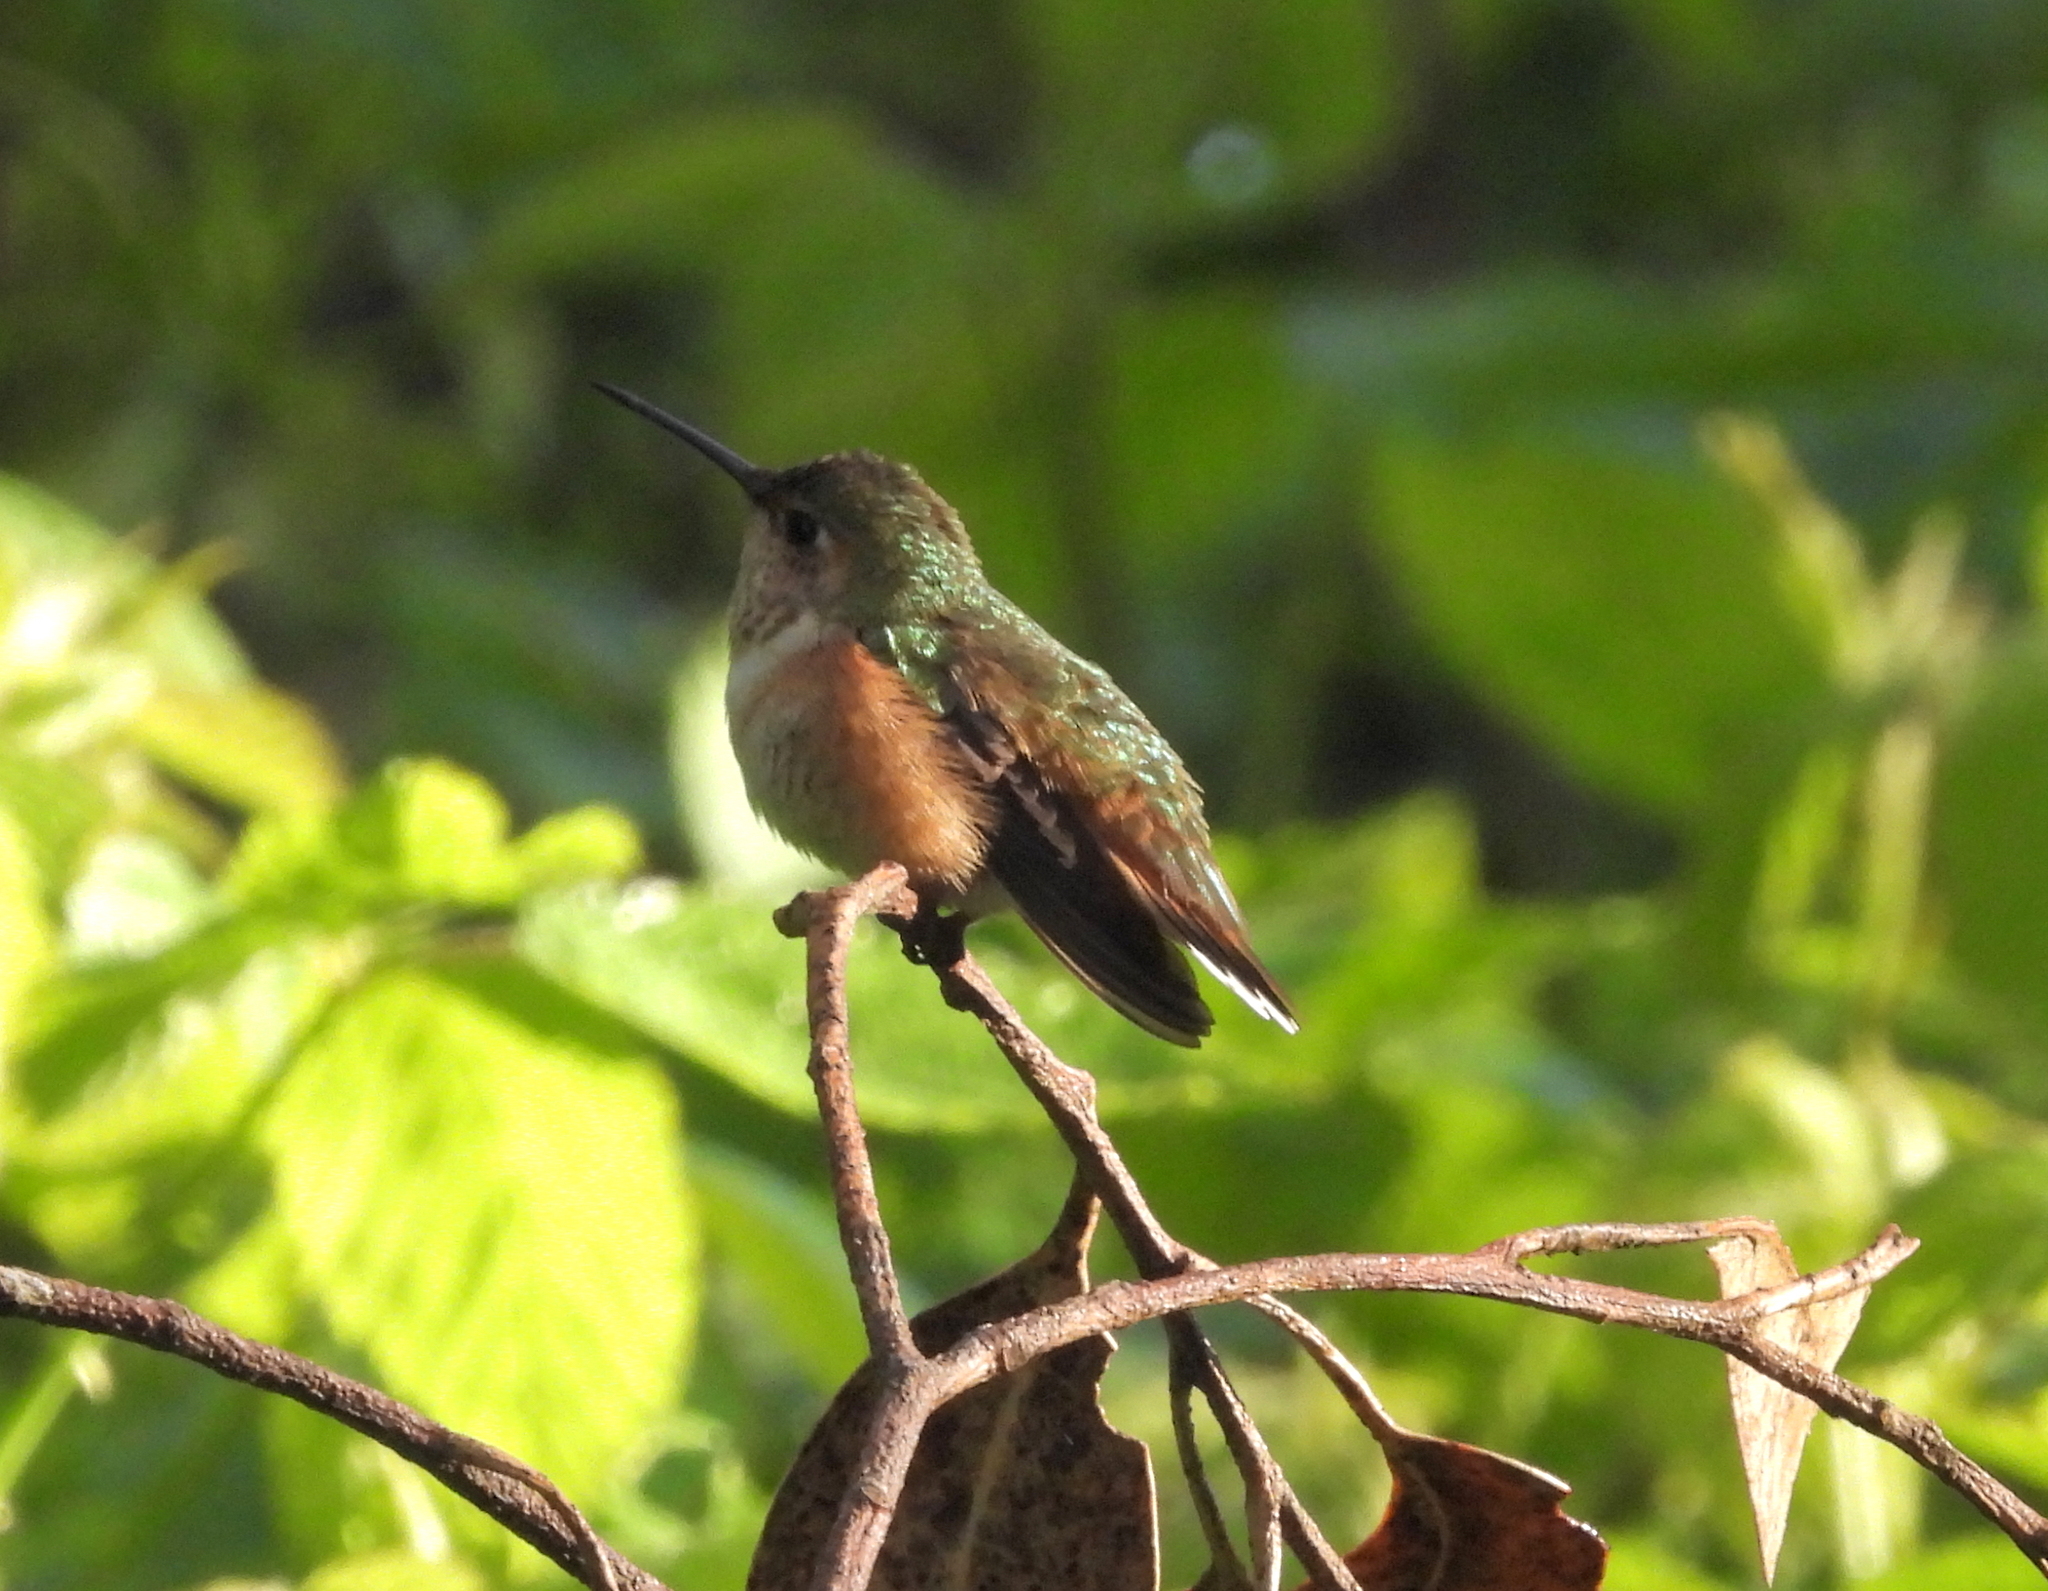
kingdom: Animalia
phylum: Chordata
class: Aves
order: Apodiformes
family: Trochilidae
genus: Selasphorus
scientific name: Selasphorus
